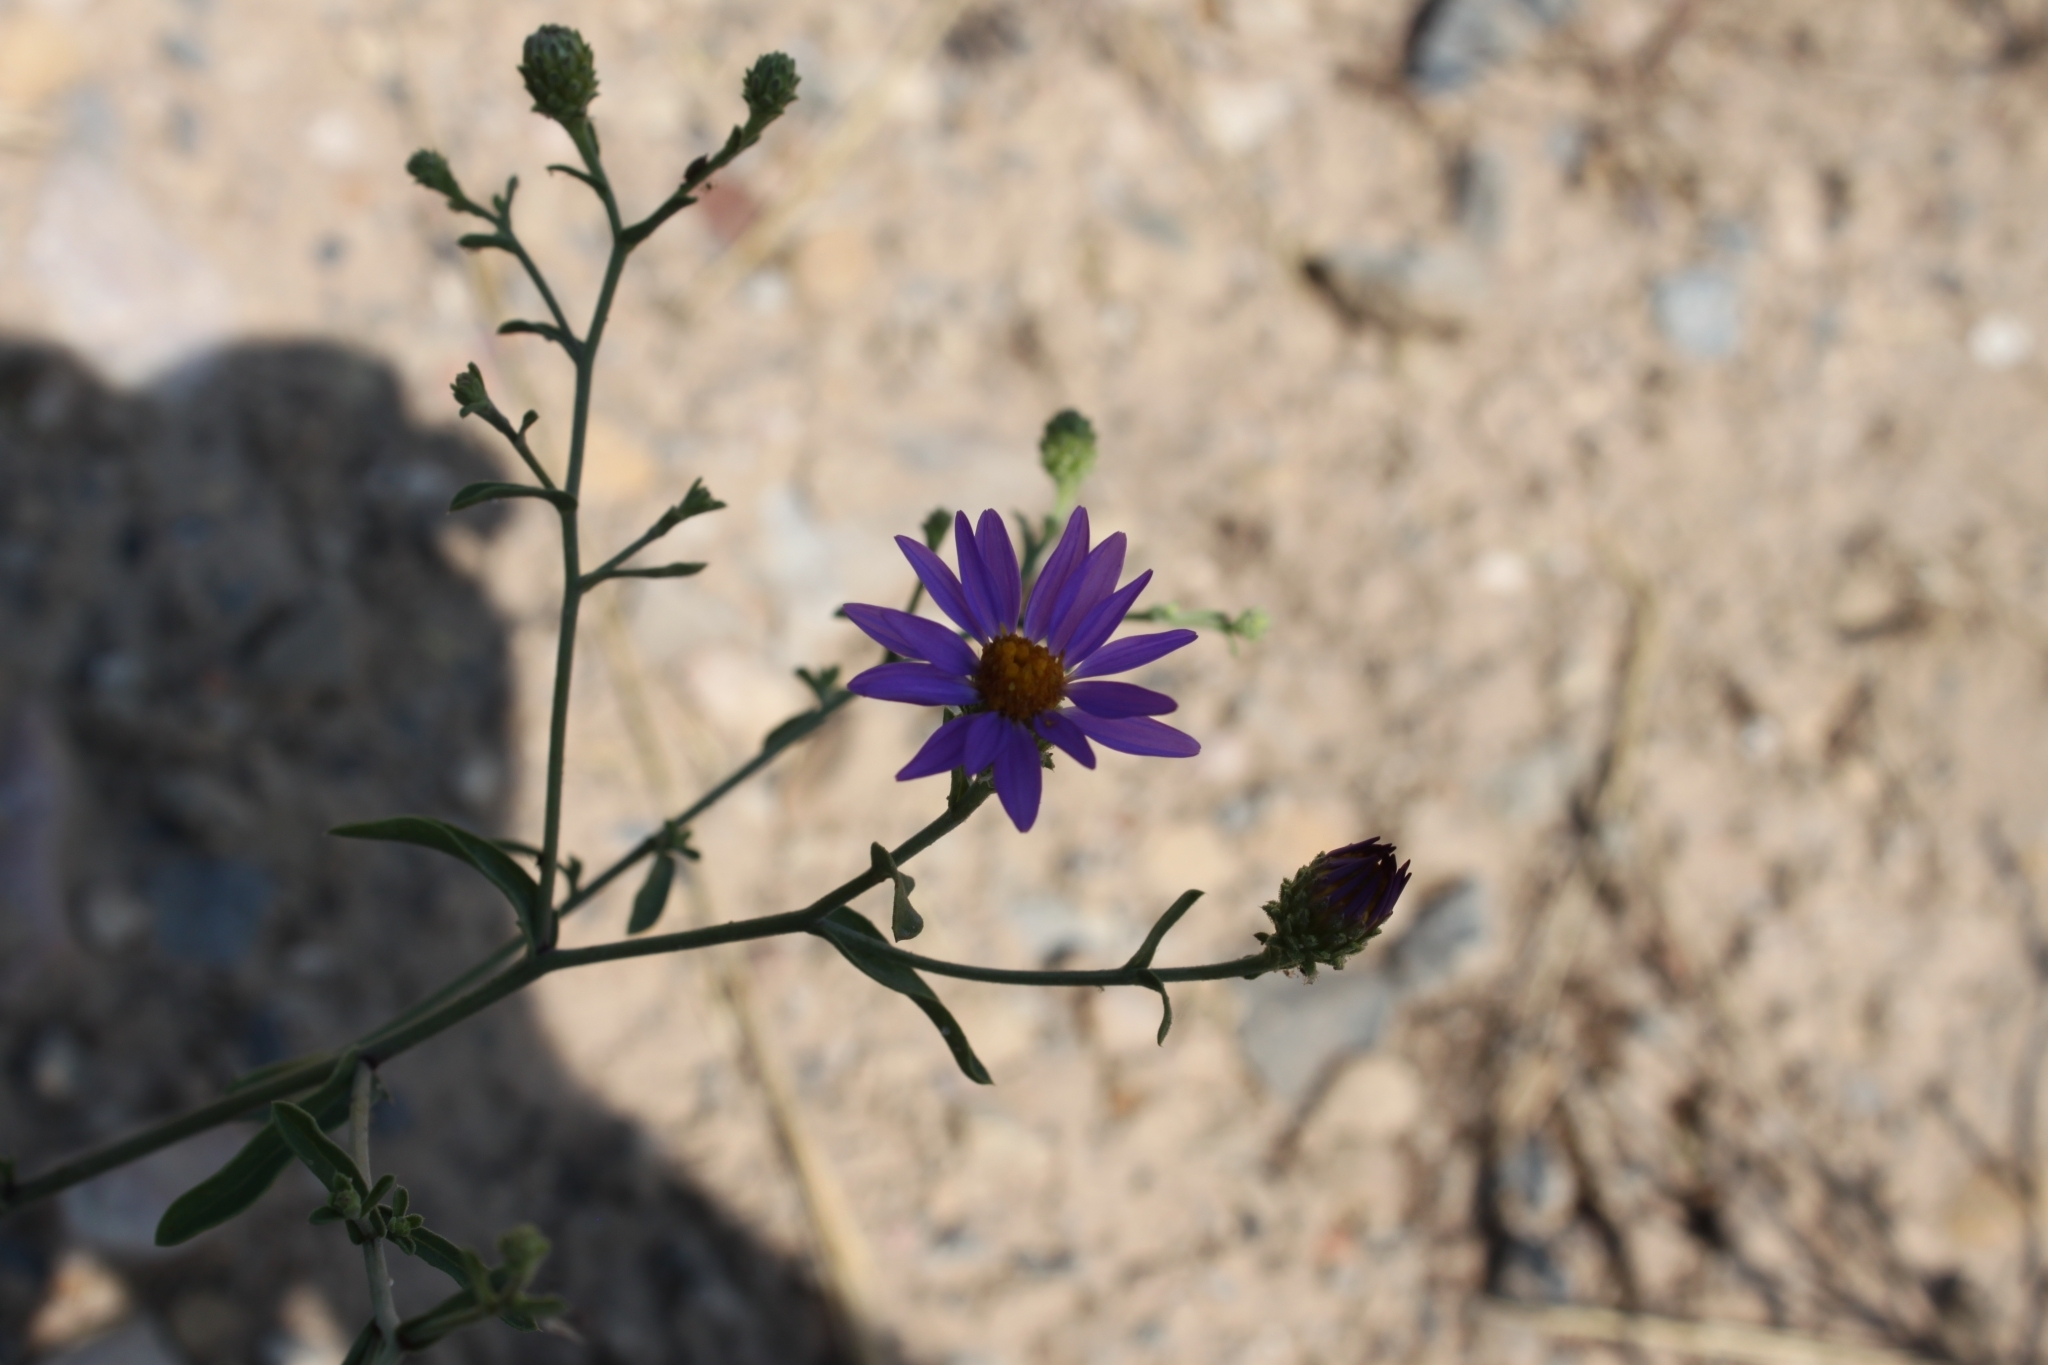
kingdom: Plantae
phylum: Tracheophyta
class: Magnoliopsida
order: Asterales
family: Asteraceae
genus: Dieteria
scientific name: Dieteria canescens
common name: Hoary-aster
